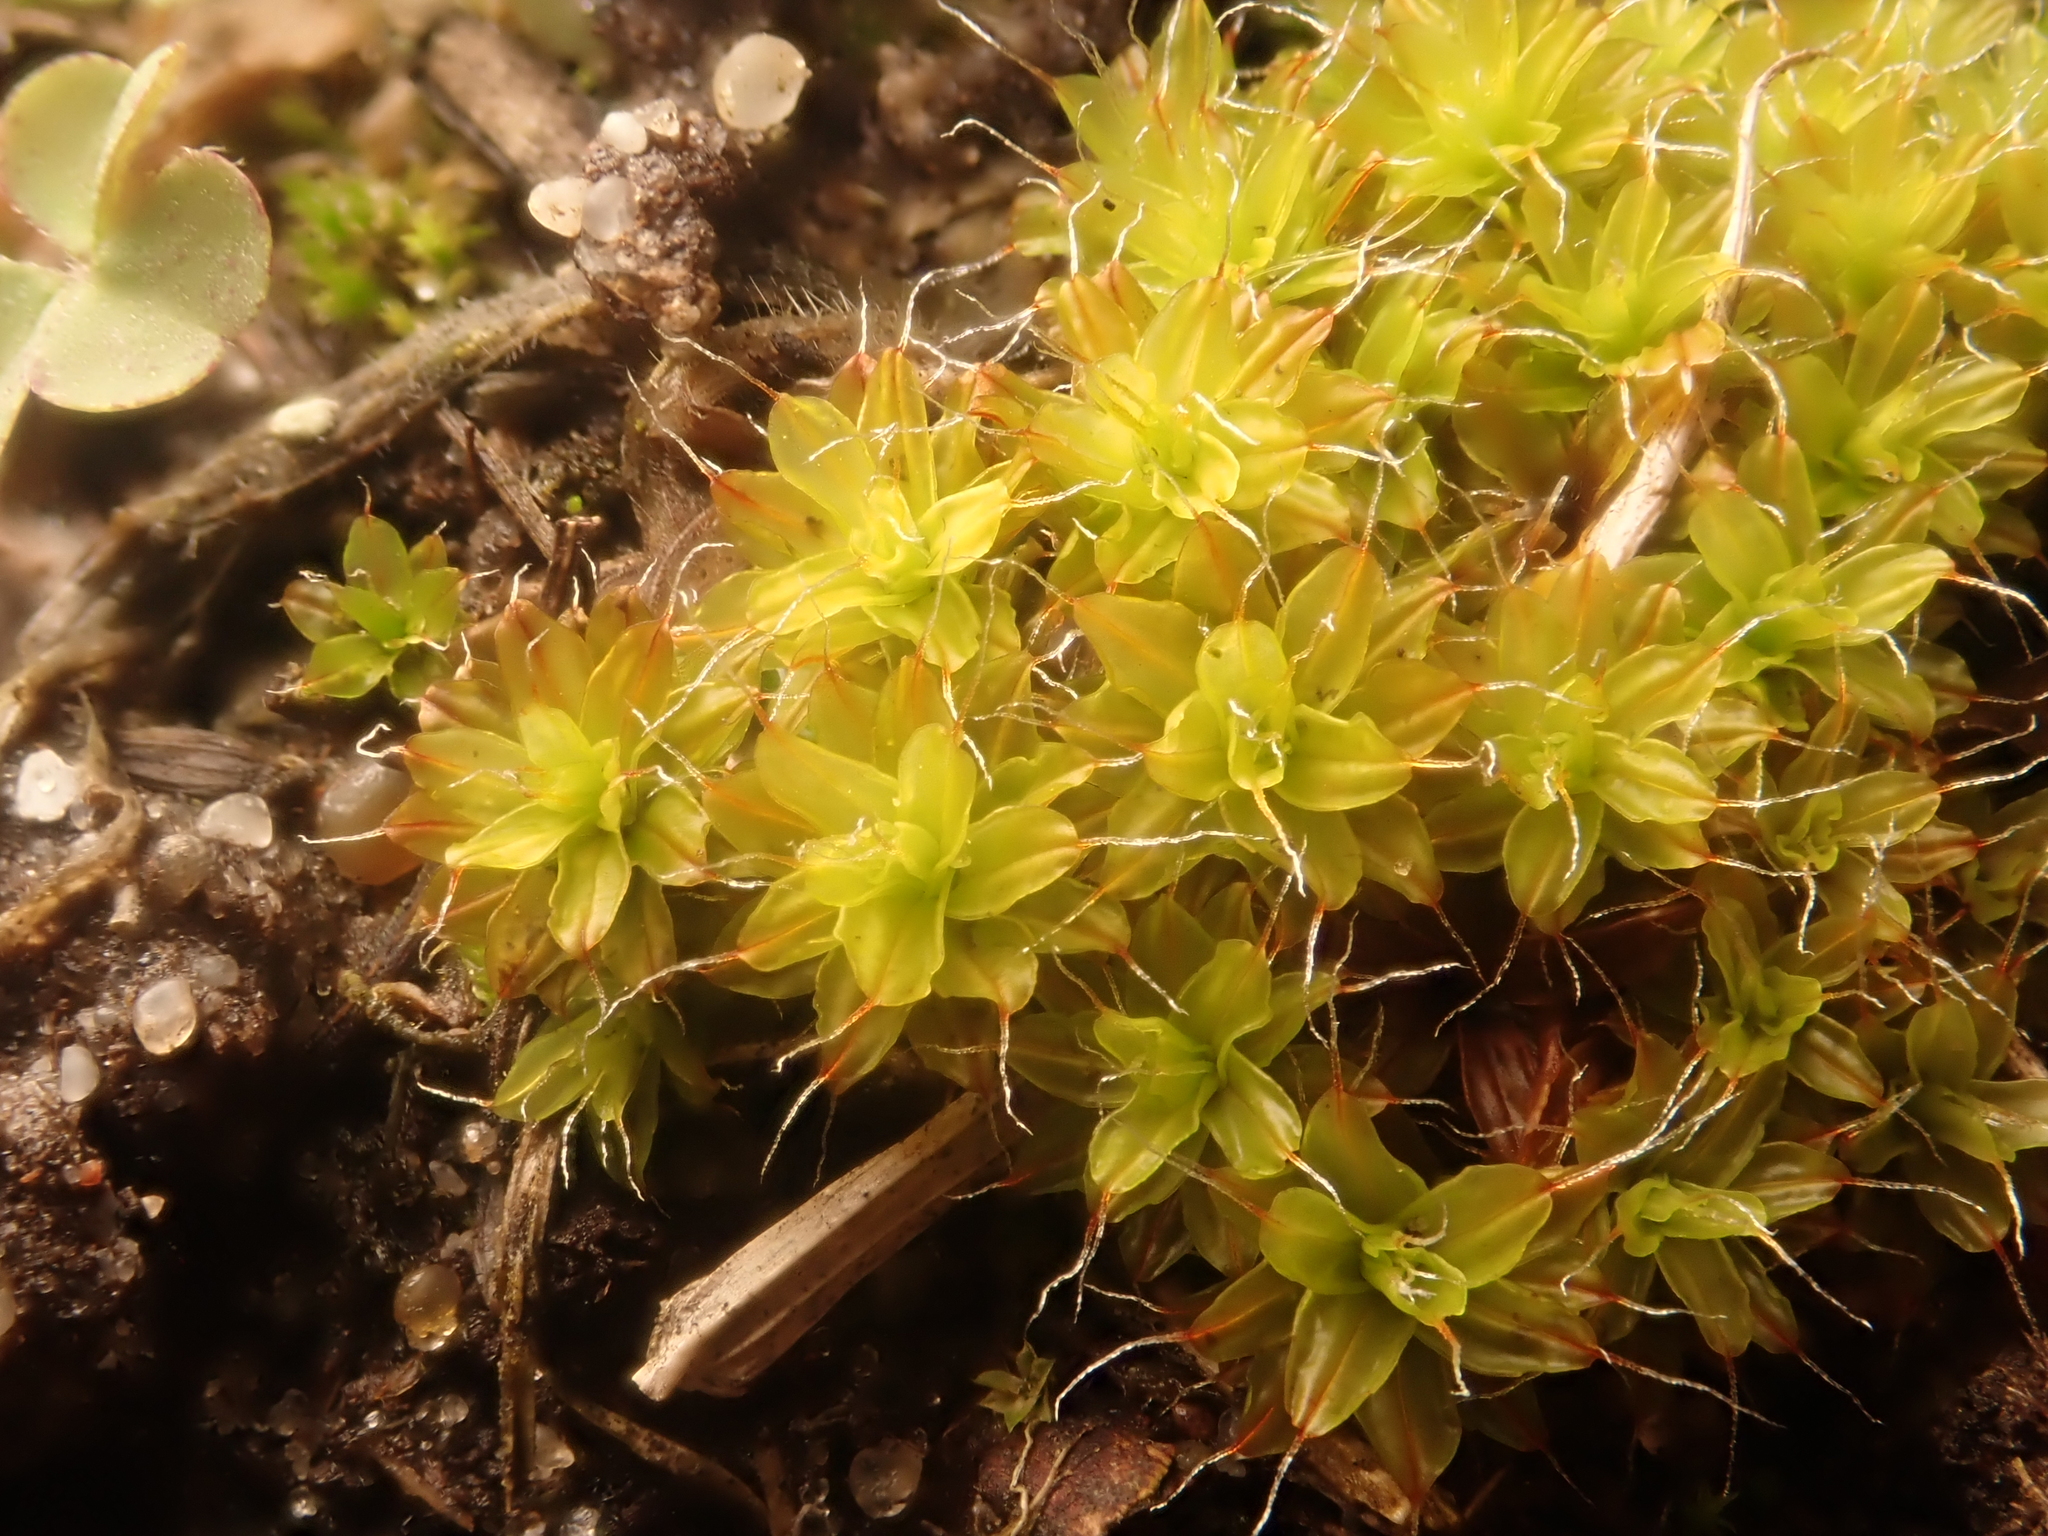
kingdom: Plantae
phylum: Bryophyta
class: Bryopsida
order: Pottiales
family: Pottiaceae
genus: Syntrichia
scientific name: Syntrichia ruralis
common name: Sidewalk screw moss
